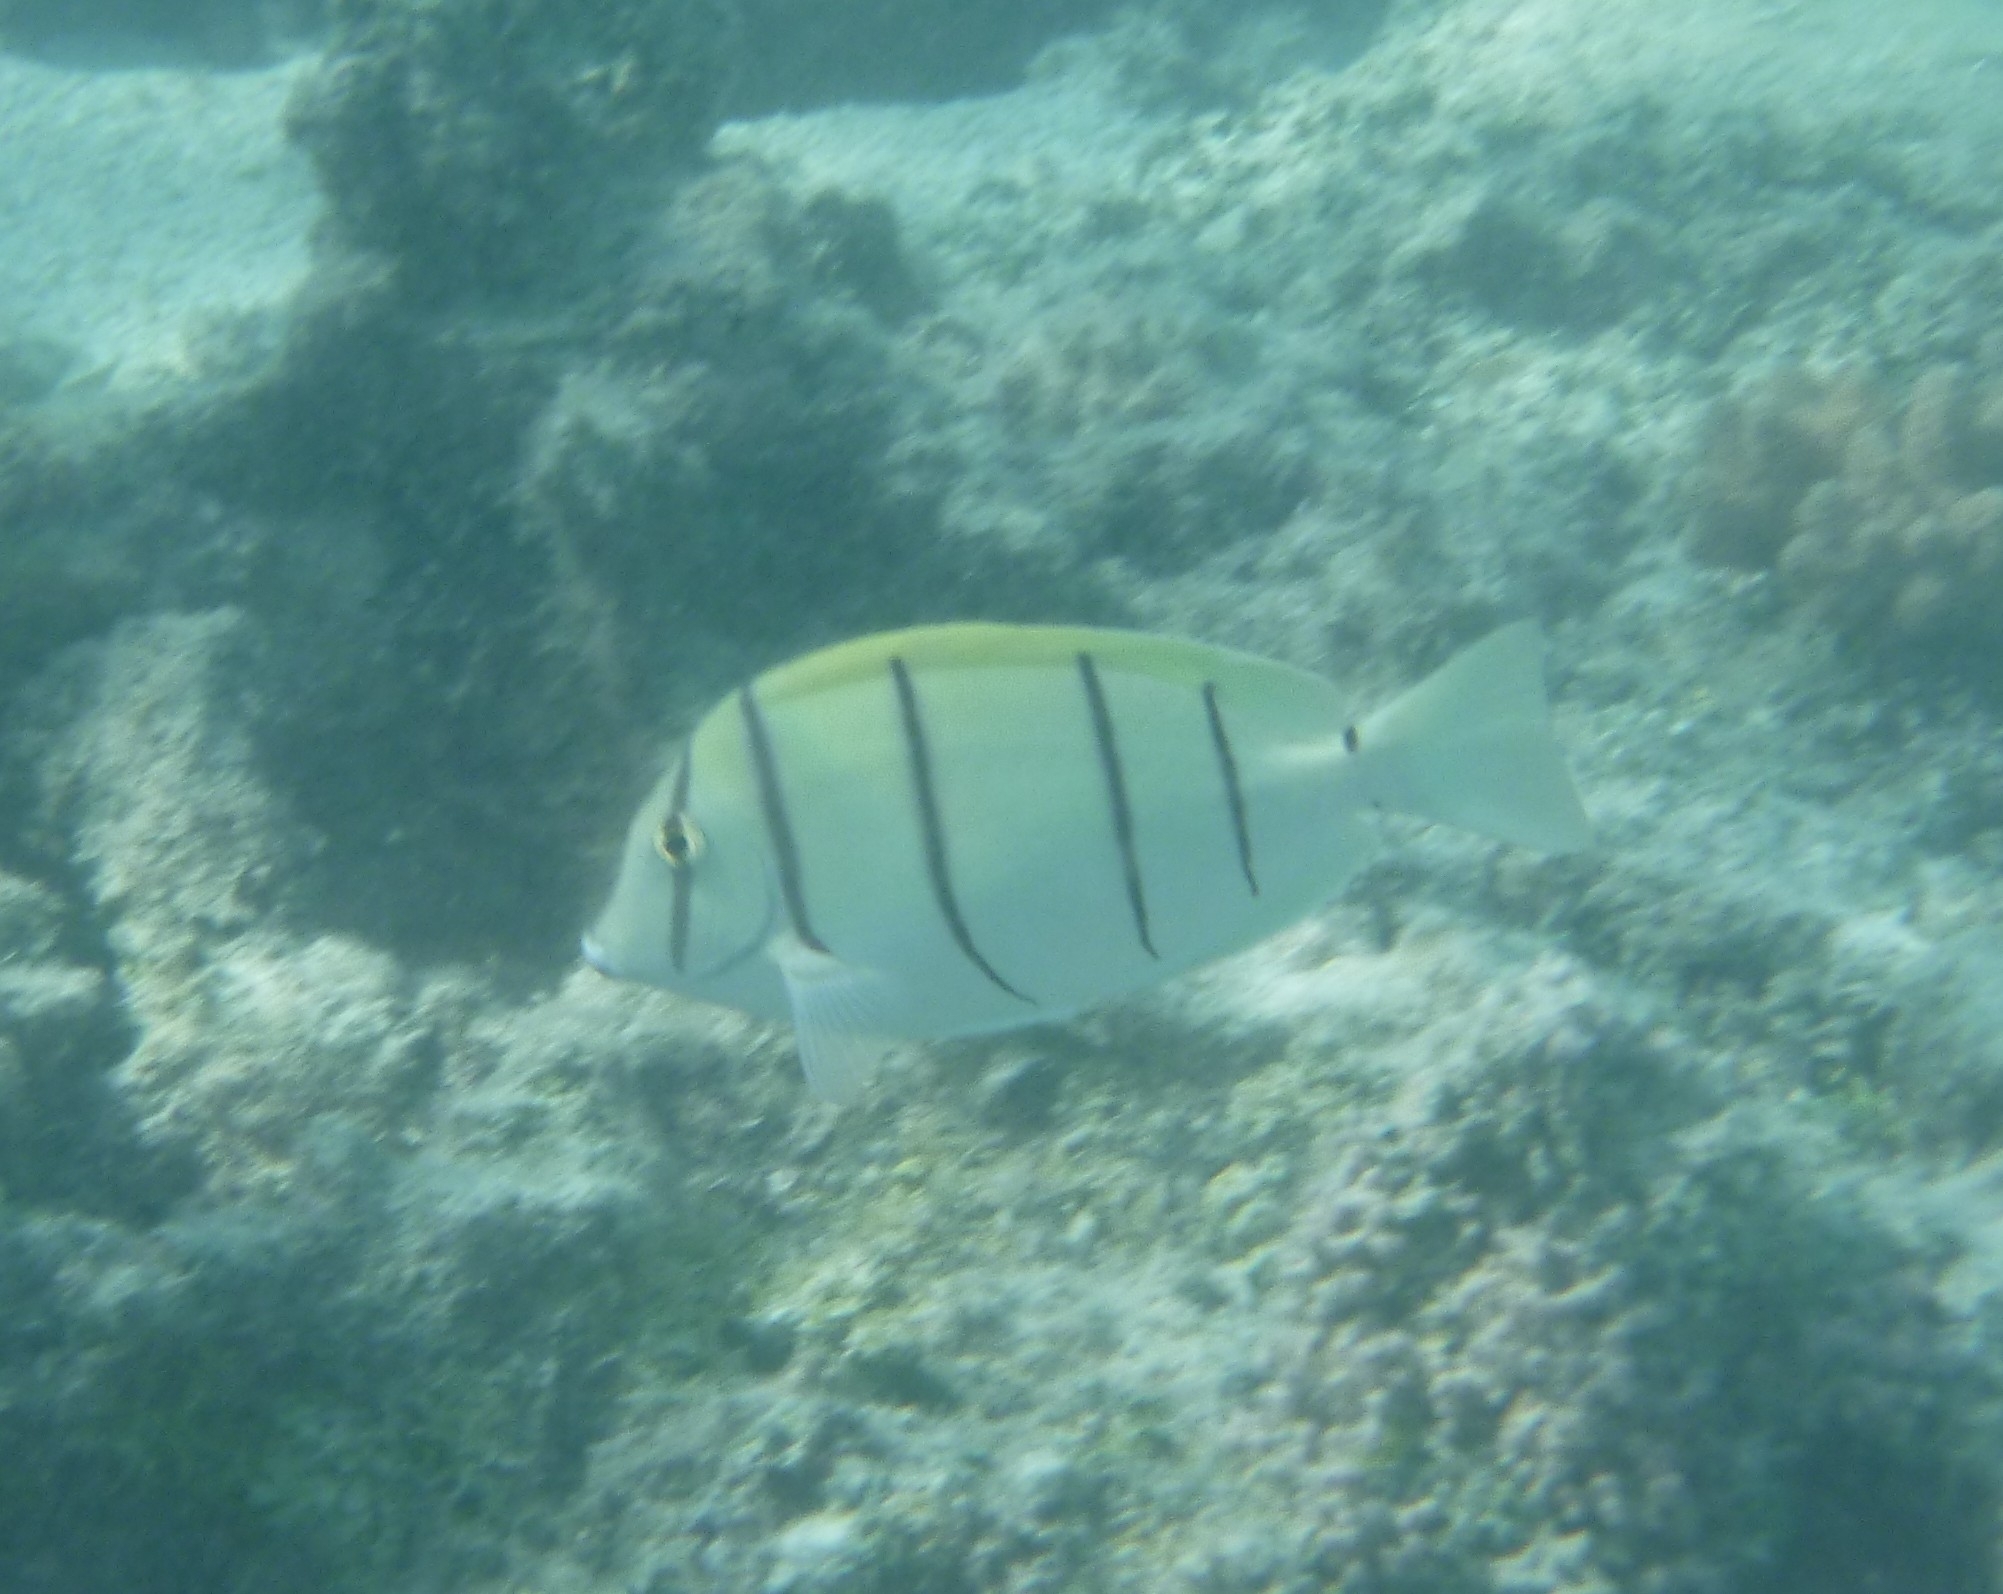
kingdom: Animalia
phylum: Chordata
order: Perciformes
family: Acanthuridae
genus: Acanthurus
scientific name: Acanthurus triostegus
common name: Convict surgeonfish
